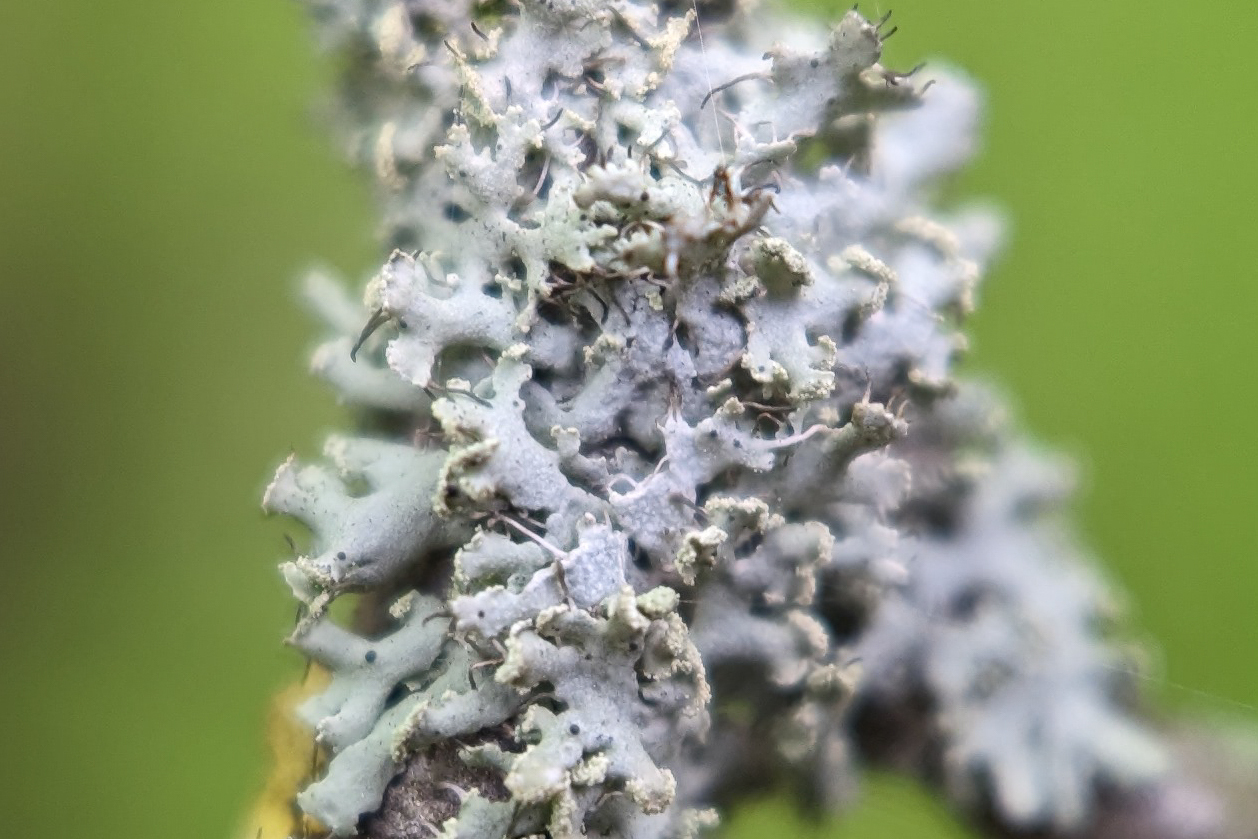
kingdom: Fungi
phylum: Ascomycota
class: Lecanoromycetes
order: Caliciales
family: Physciaceae
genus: Physcia
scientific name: Physcia tenella
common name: Fringed rosette lichen
